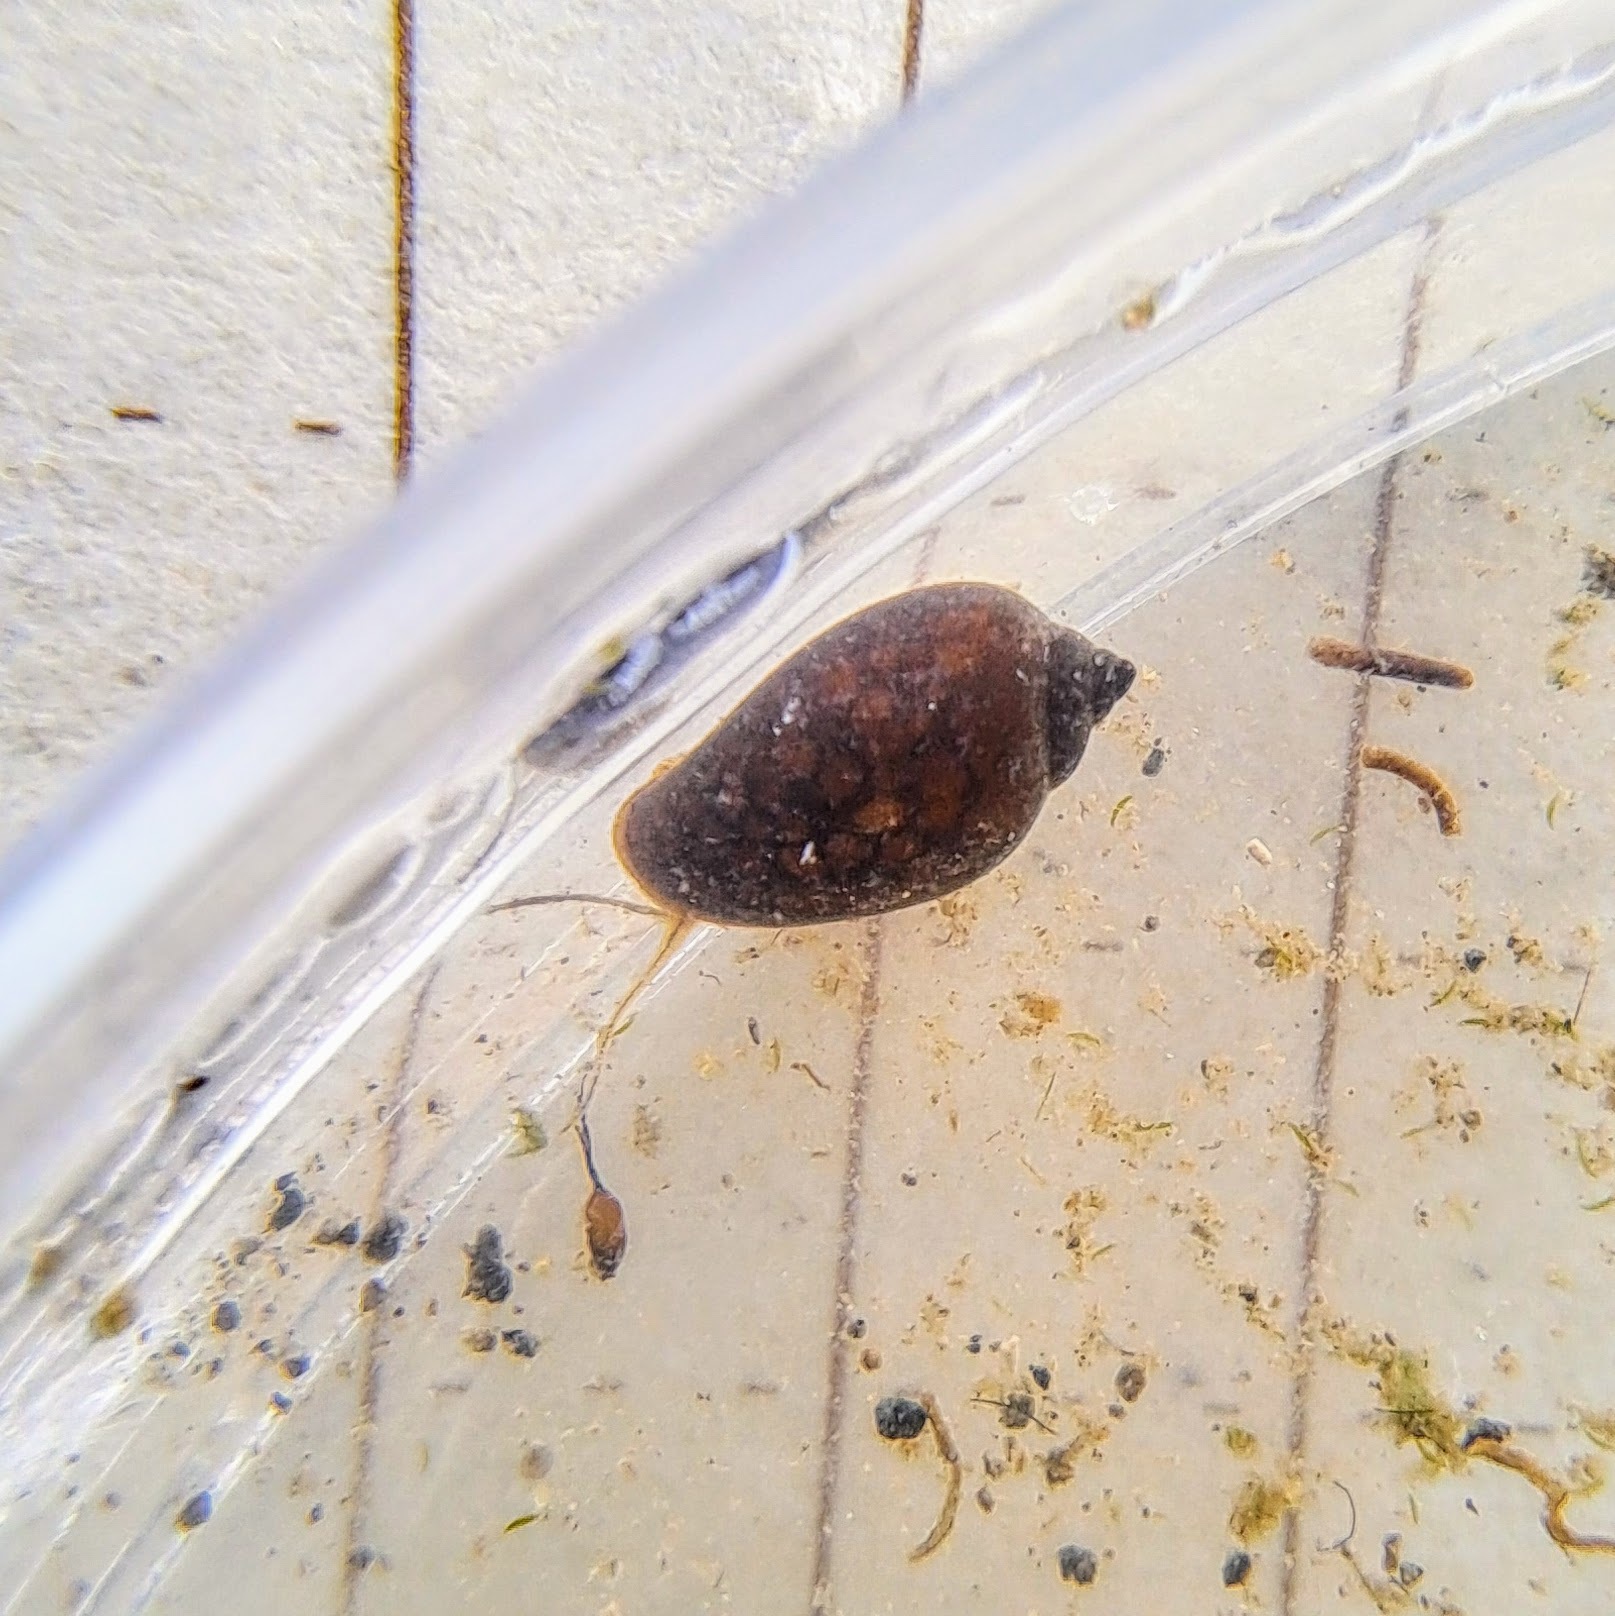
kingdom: Animalia
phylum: Mollusca
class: Gastropoda
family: Physidae
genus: Physella
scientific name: Physella
